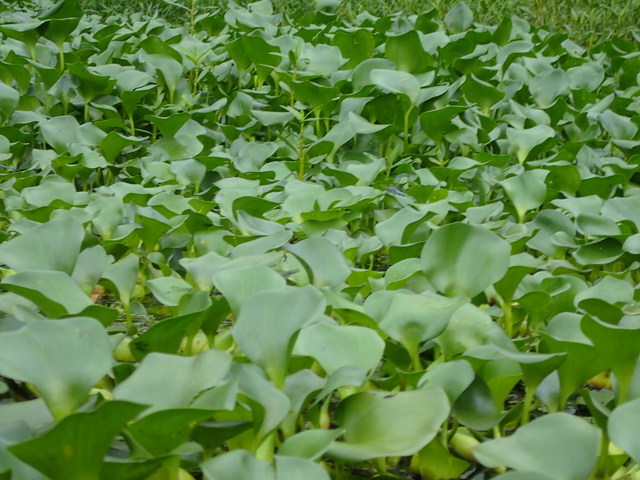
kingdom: Plantae
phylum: Tracheophyta
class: Liliopsida
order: Commelinales
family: Pontederiaceae
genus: Pontederia
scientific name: Pontederia crassipes
